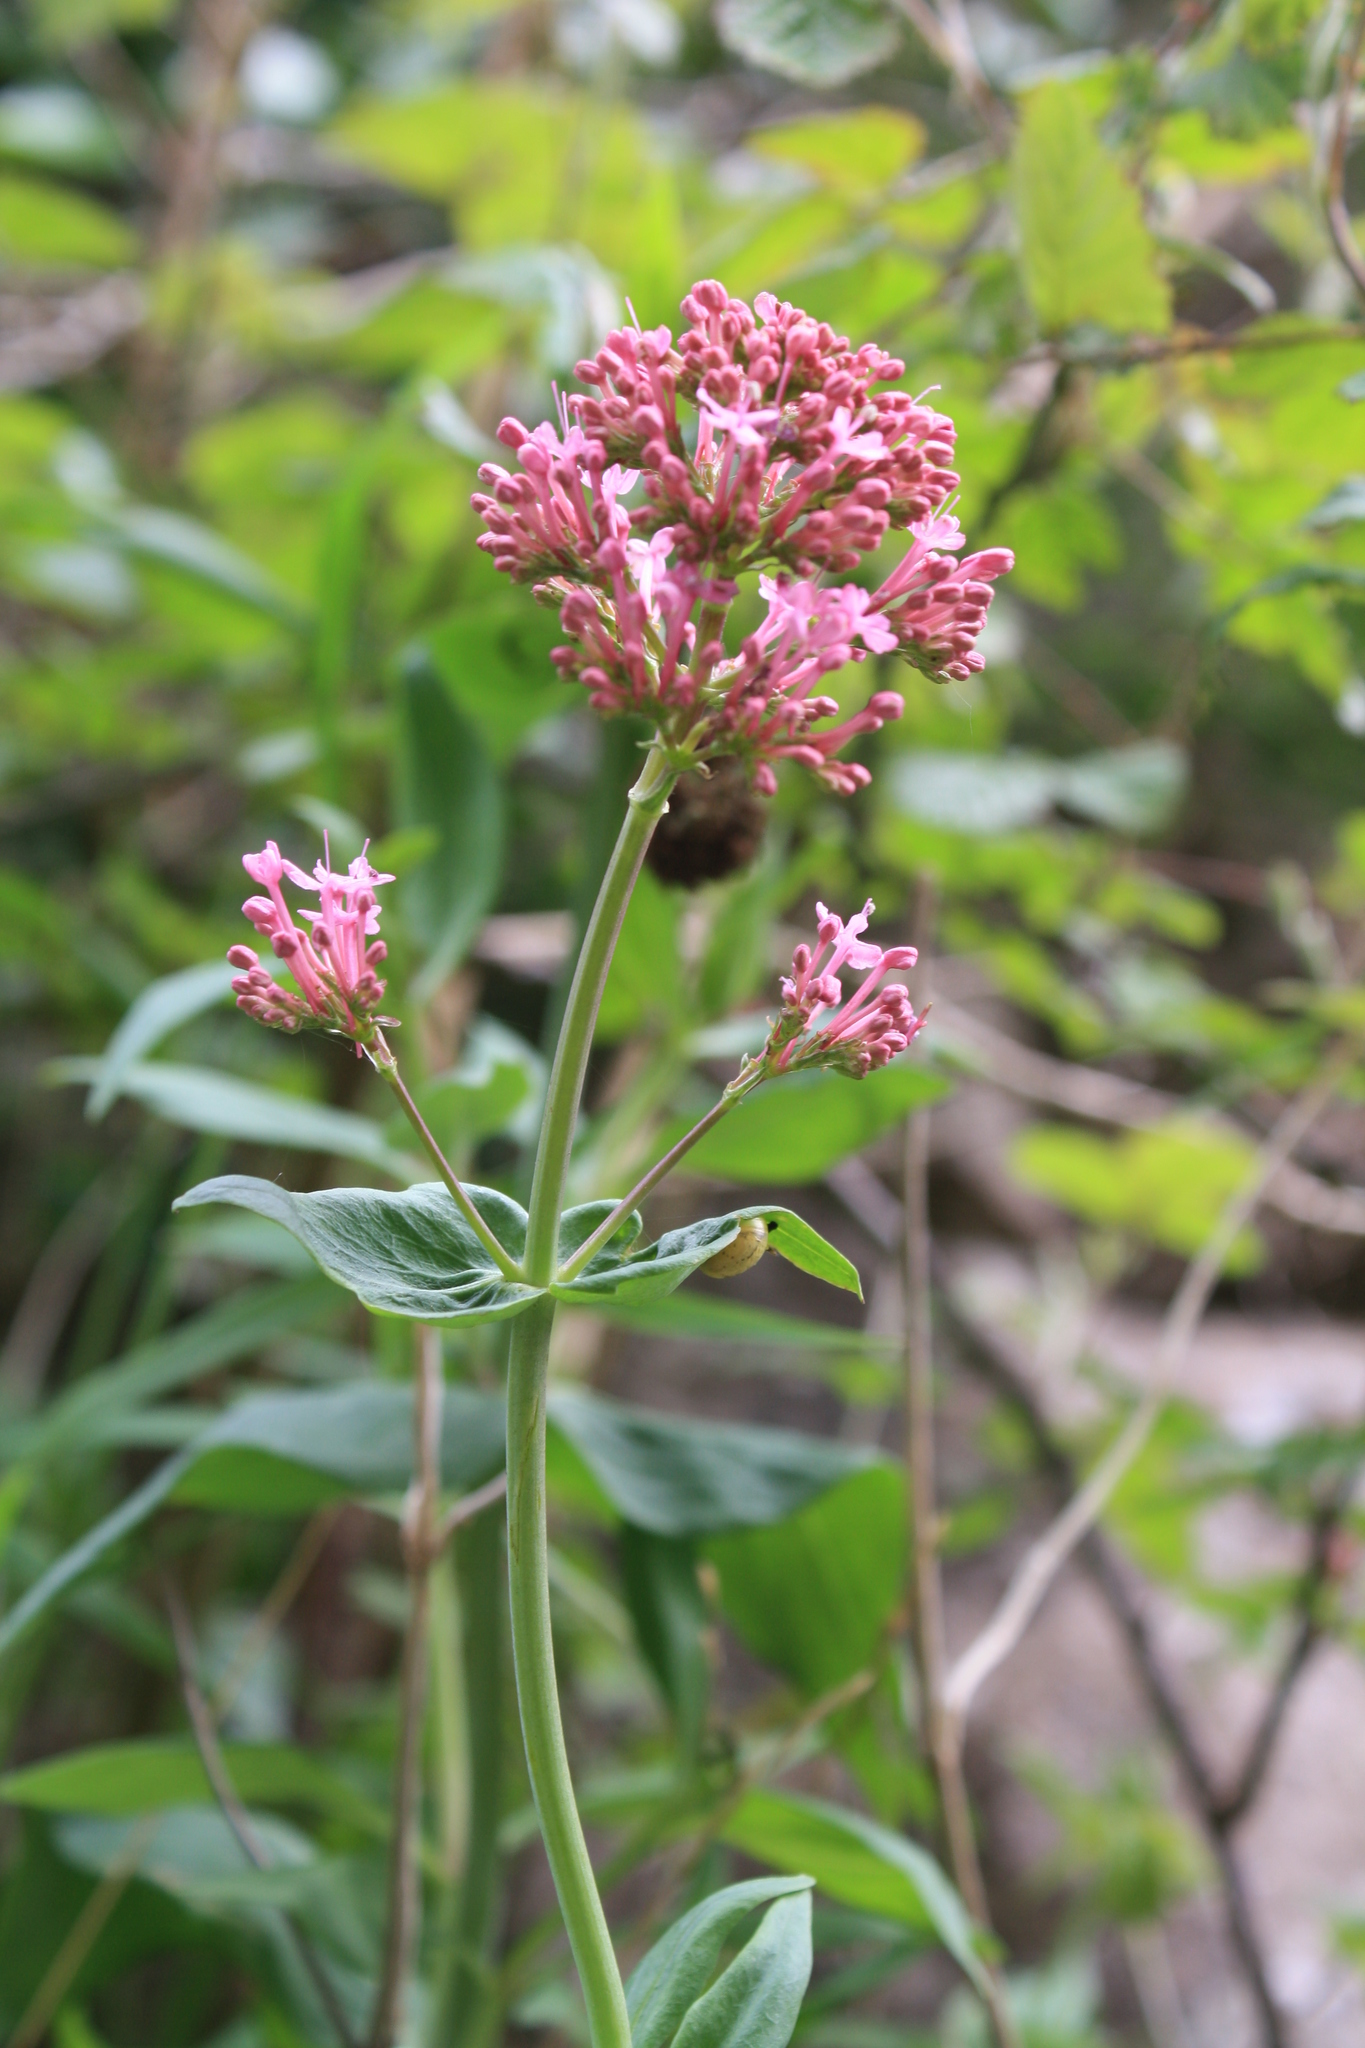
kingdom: Plantae
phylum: Tracheophyta
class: Magnoliopsida
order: Dipsacales
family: Caprifoliaceae
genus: Centranthus
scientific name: Centranthus ruber
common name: Red valerian
